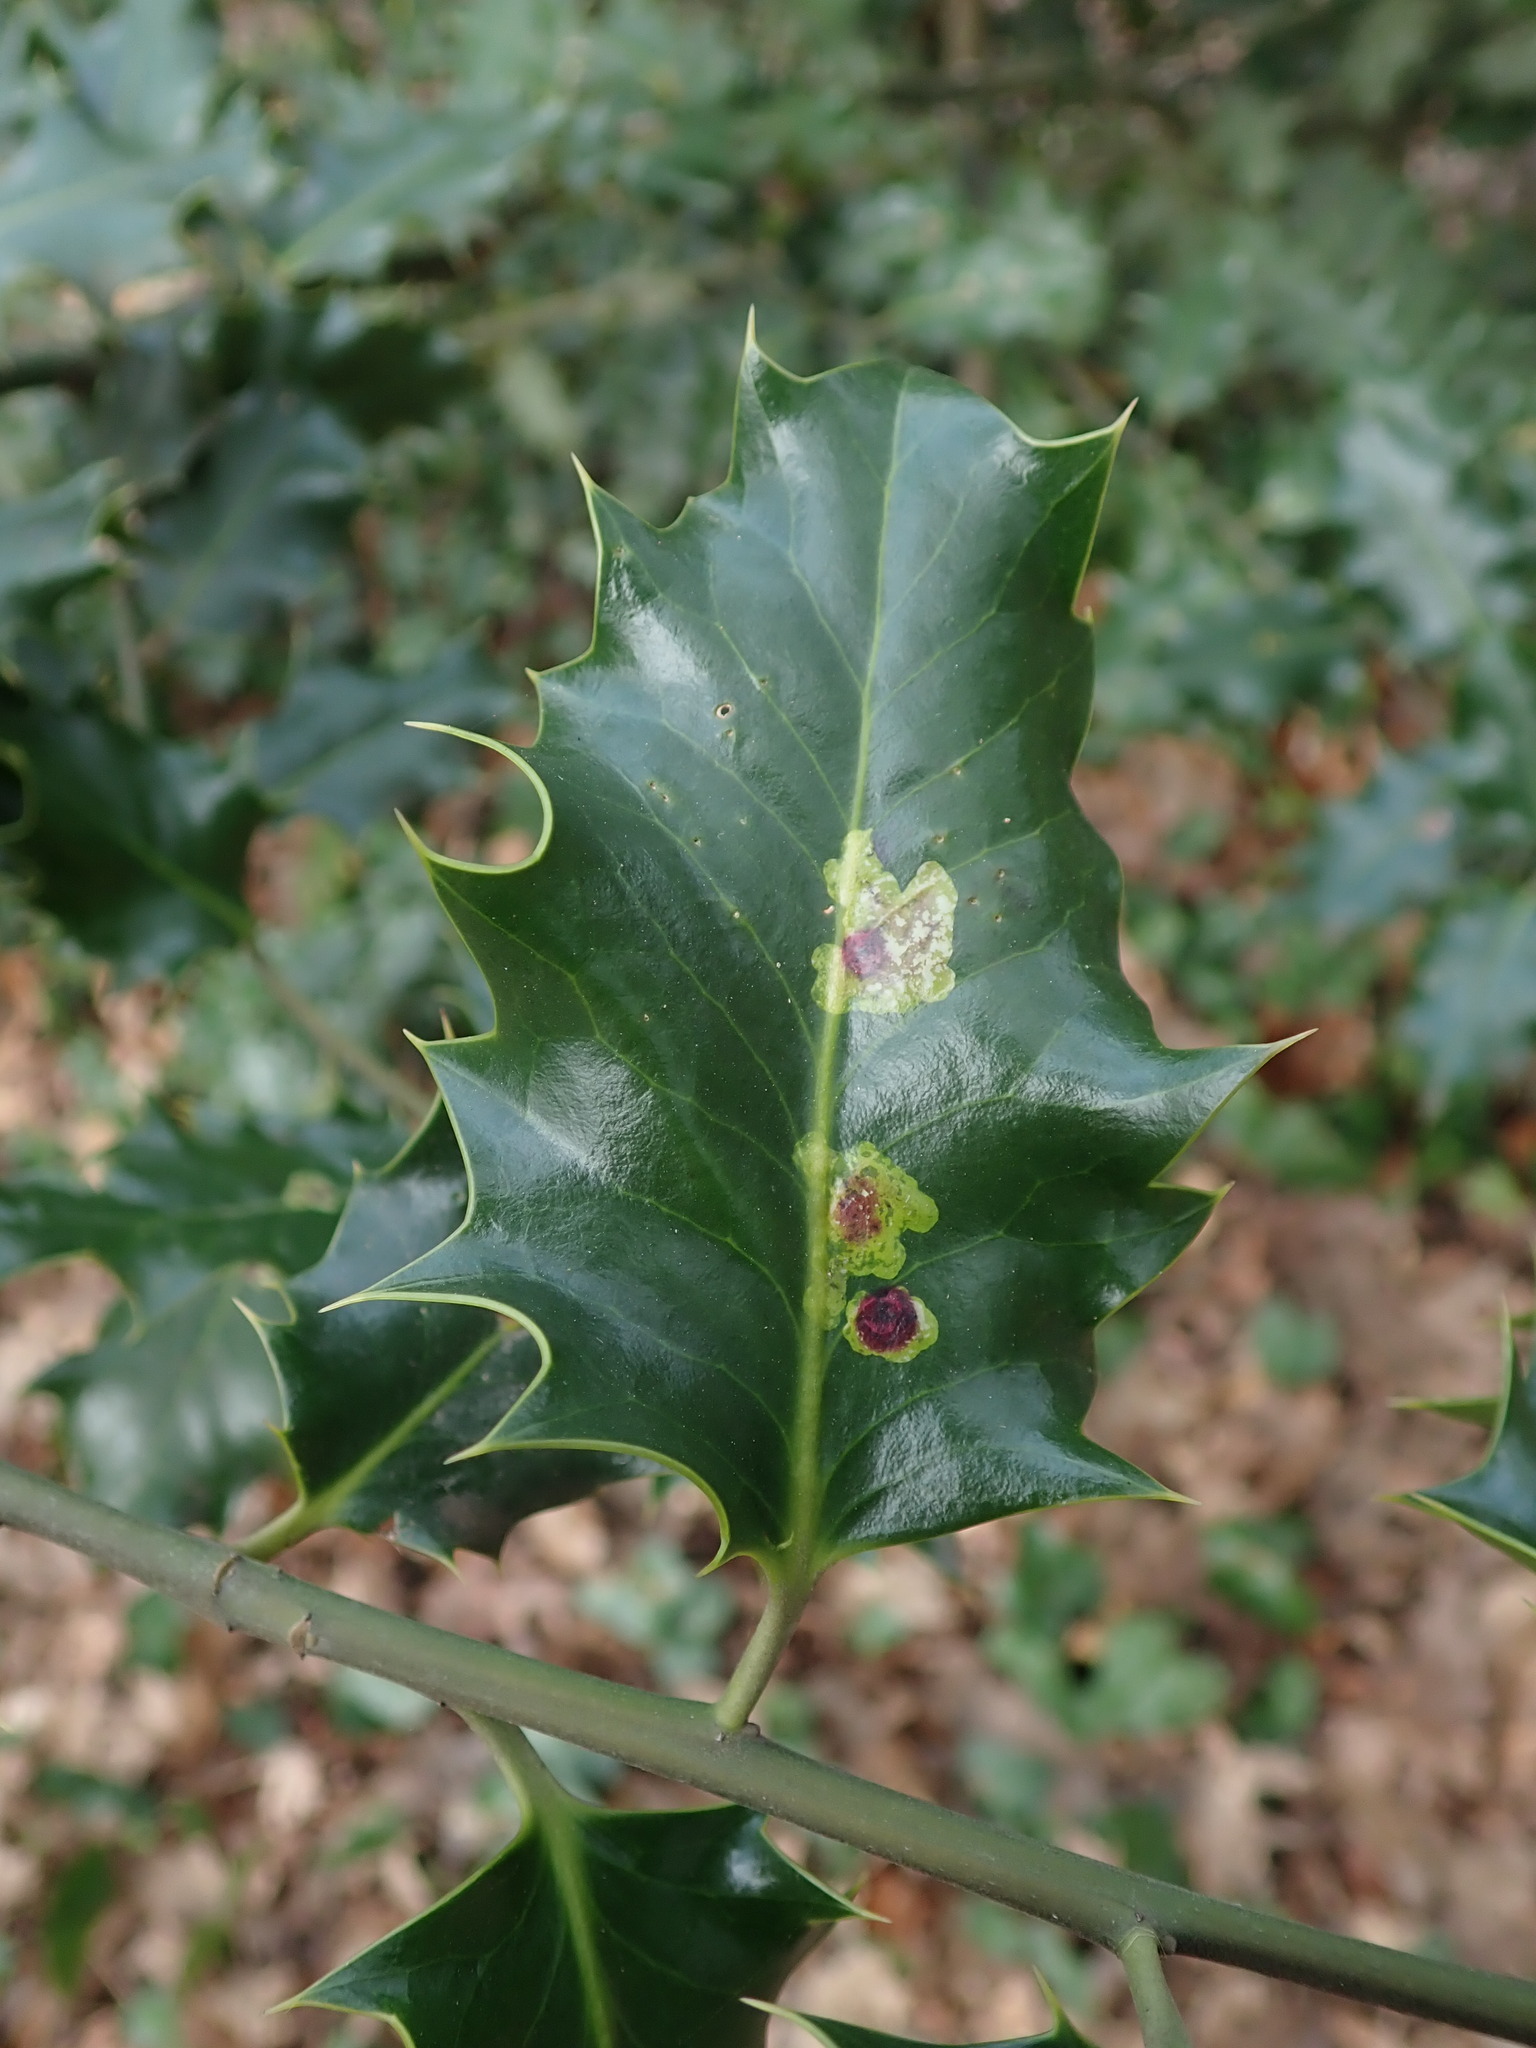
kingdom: Animalia
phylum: Arthropoda
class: Insecta
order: Diptera
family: Agromyzidae
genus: Phytomyza
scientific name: Phytomyza ilicis
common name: Holly leafminer
